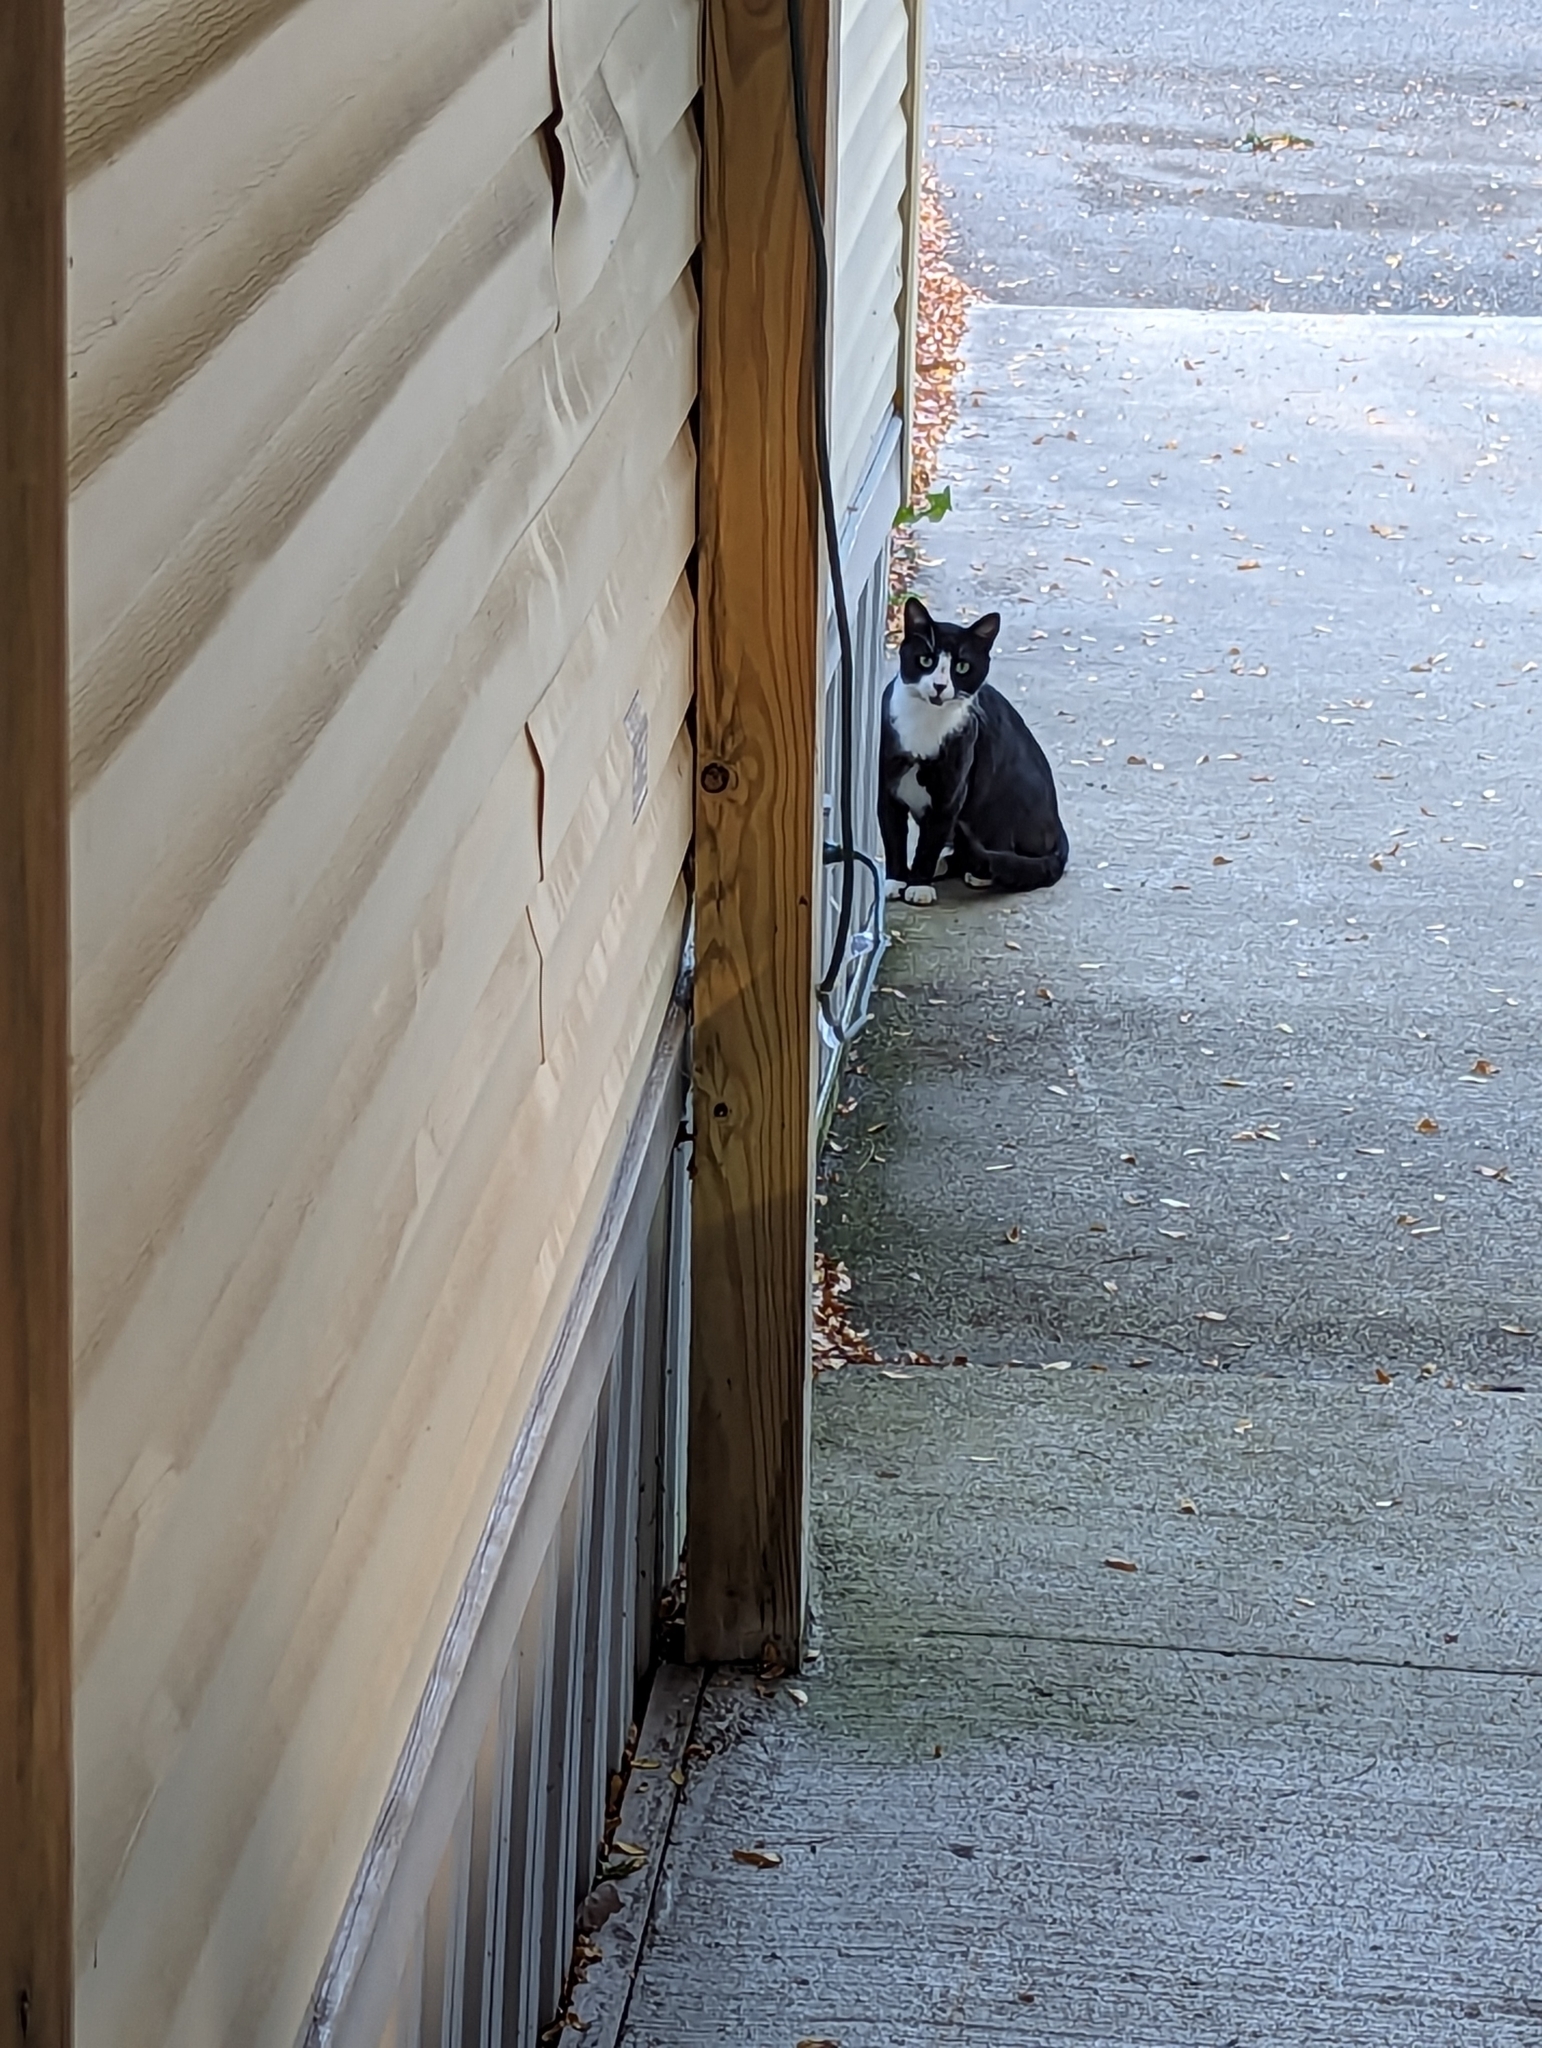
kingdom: Animalia
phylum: Chordata
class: Mammalia
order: Carnivora
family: Felidae
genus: Felis
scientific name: Felis catus
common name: Domestic cat
